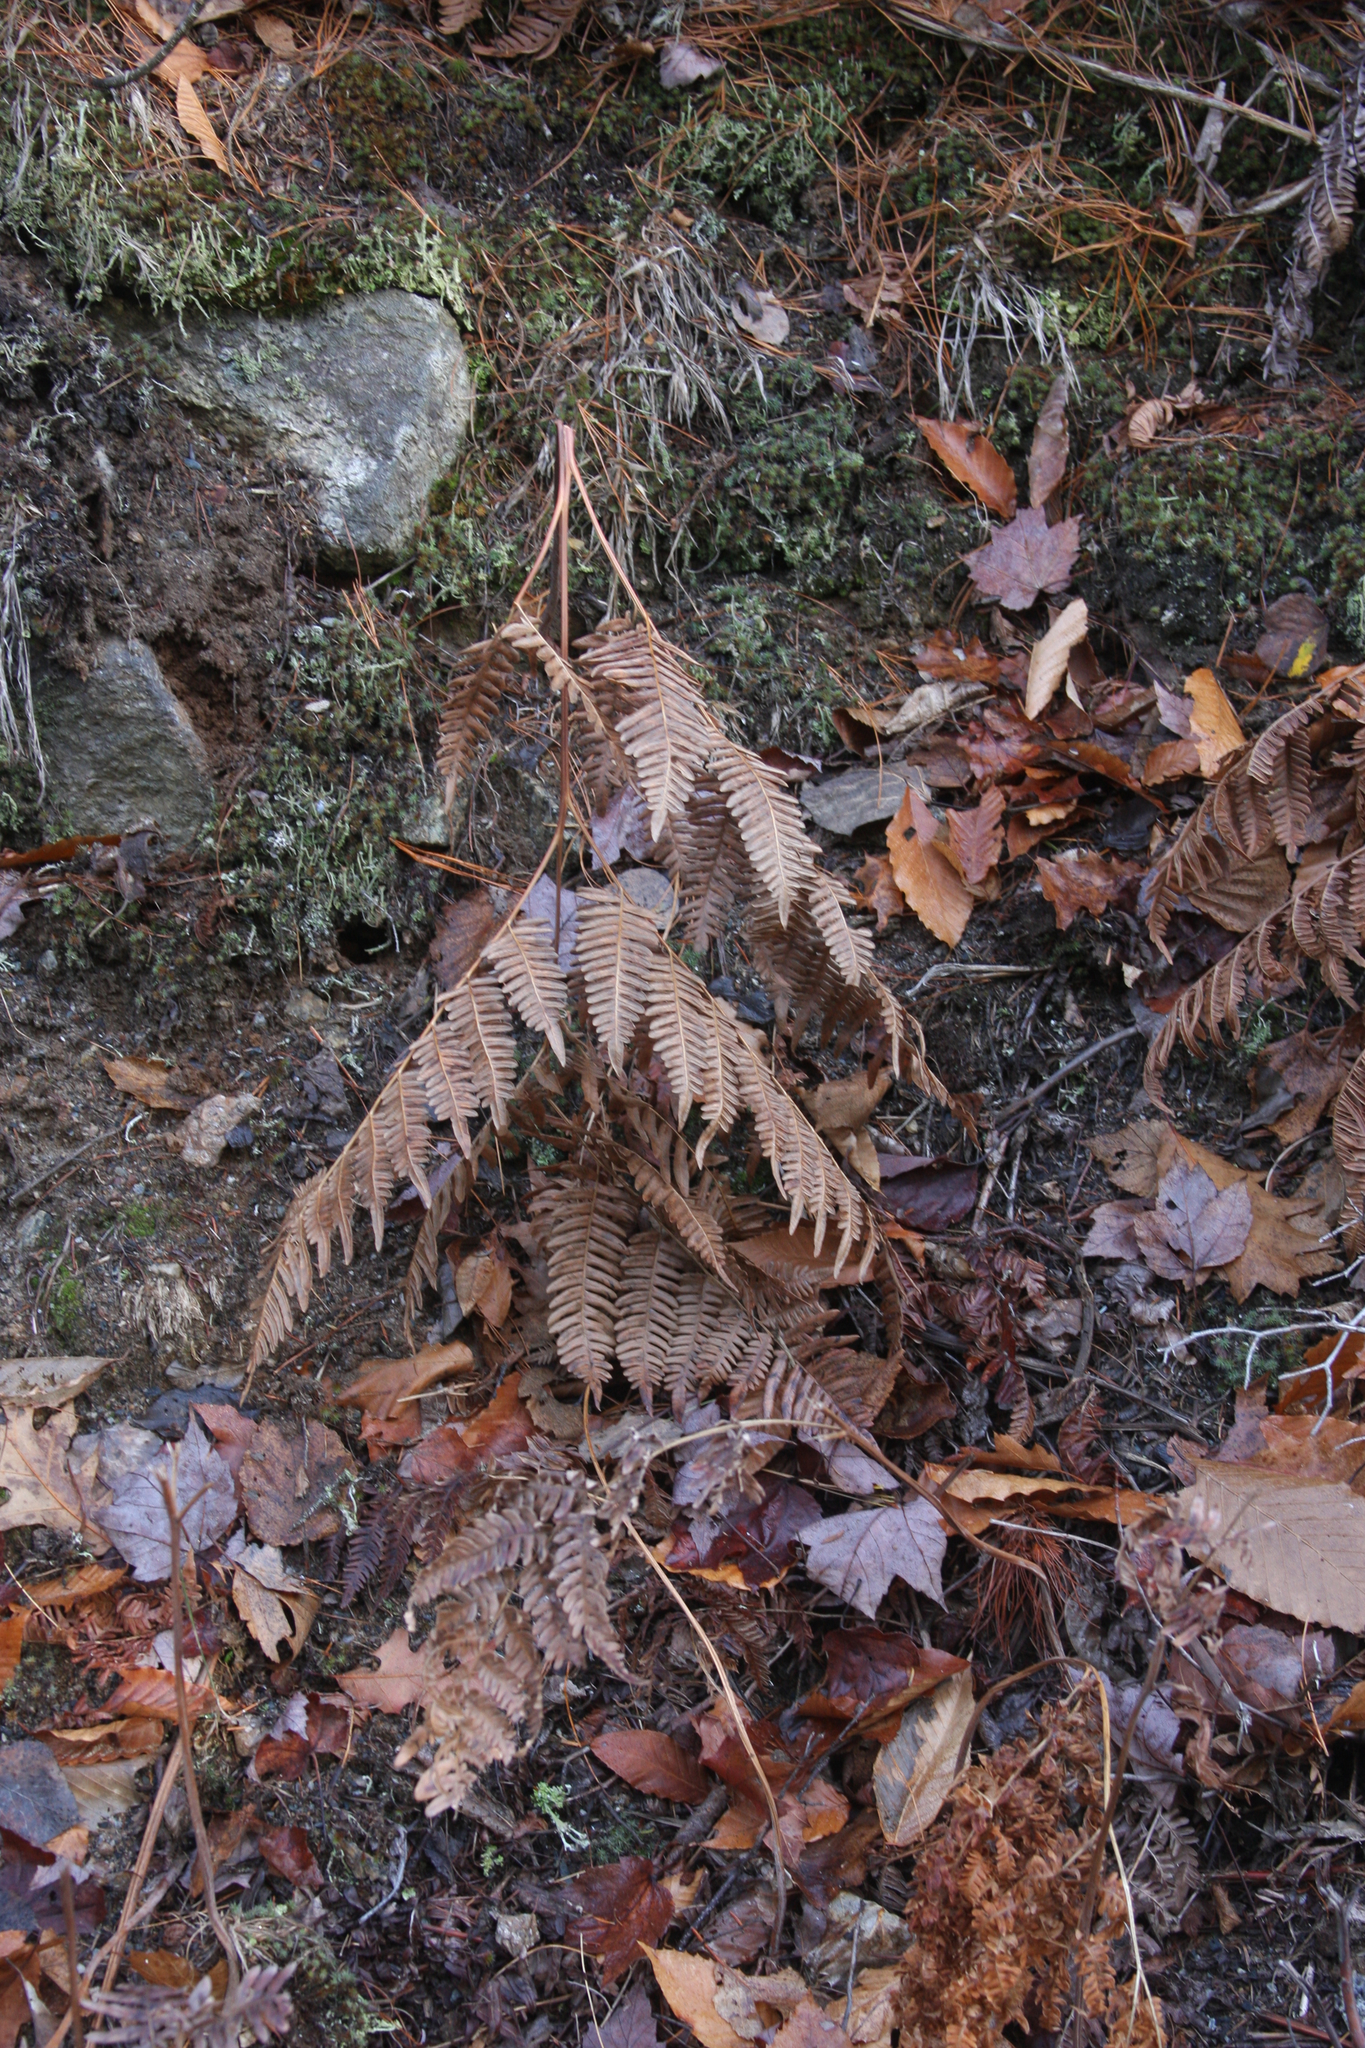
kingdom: Plantae
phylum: Tracheophyta
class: Polypodiopsida
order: Polypodiales
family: Dennstaedtiaceae
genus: Pteridium
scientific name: Pteridium aquilinum
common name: Bracken
